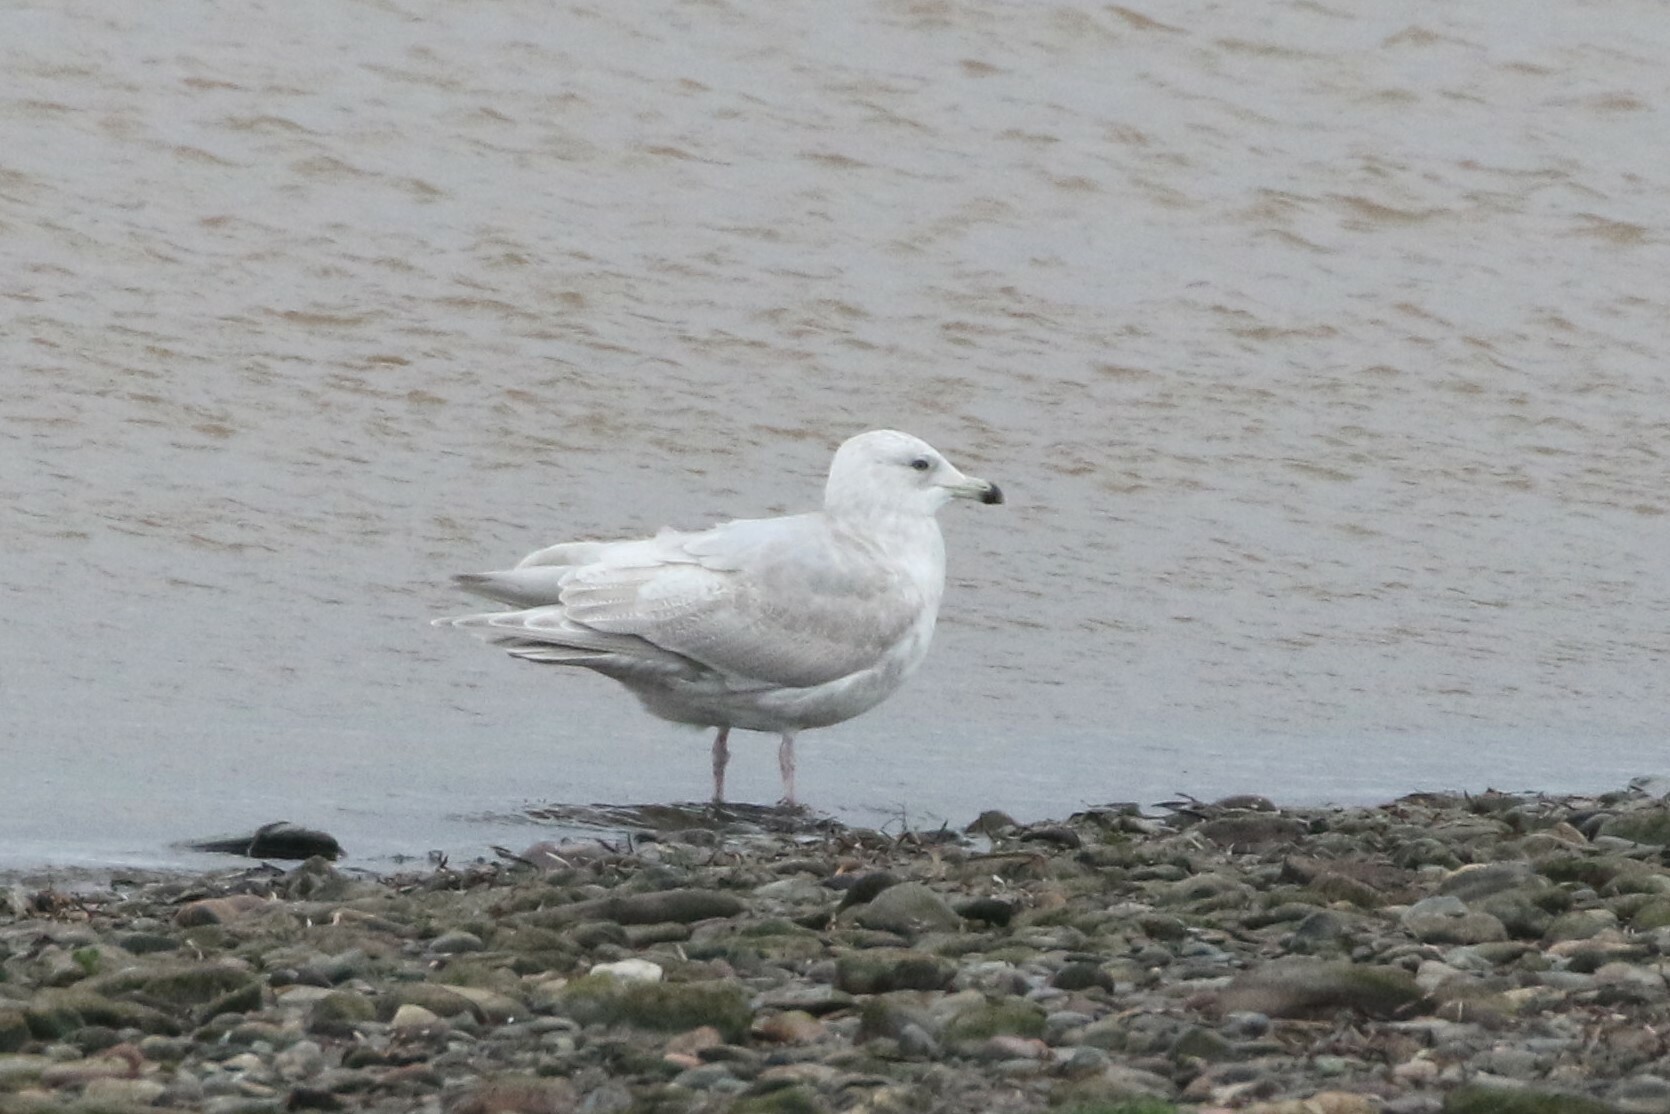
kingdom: Animalia
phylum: Chordata
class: Aves
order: Charadriiformes
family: Laridae
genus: Larus
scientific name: Larus glaucoides
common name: Iceland gull
